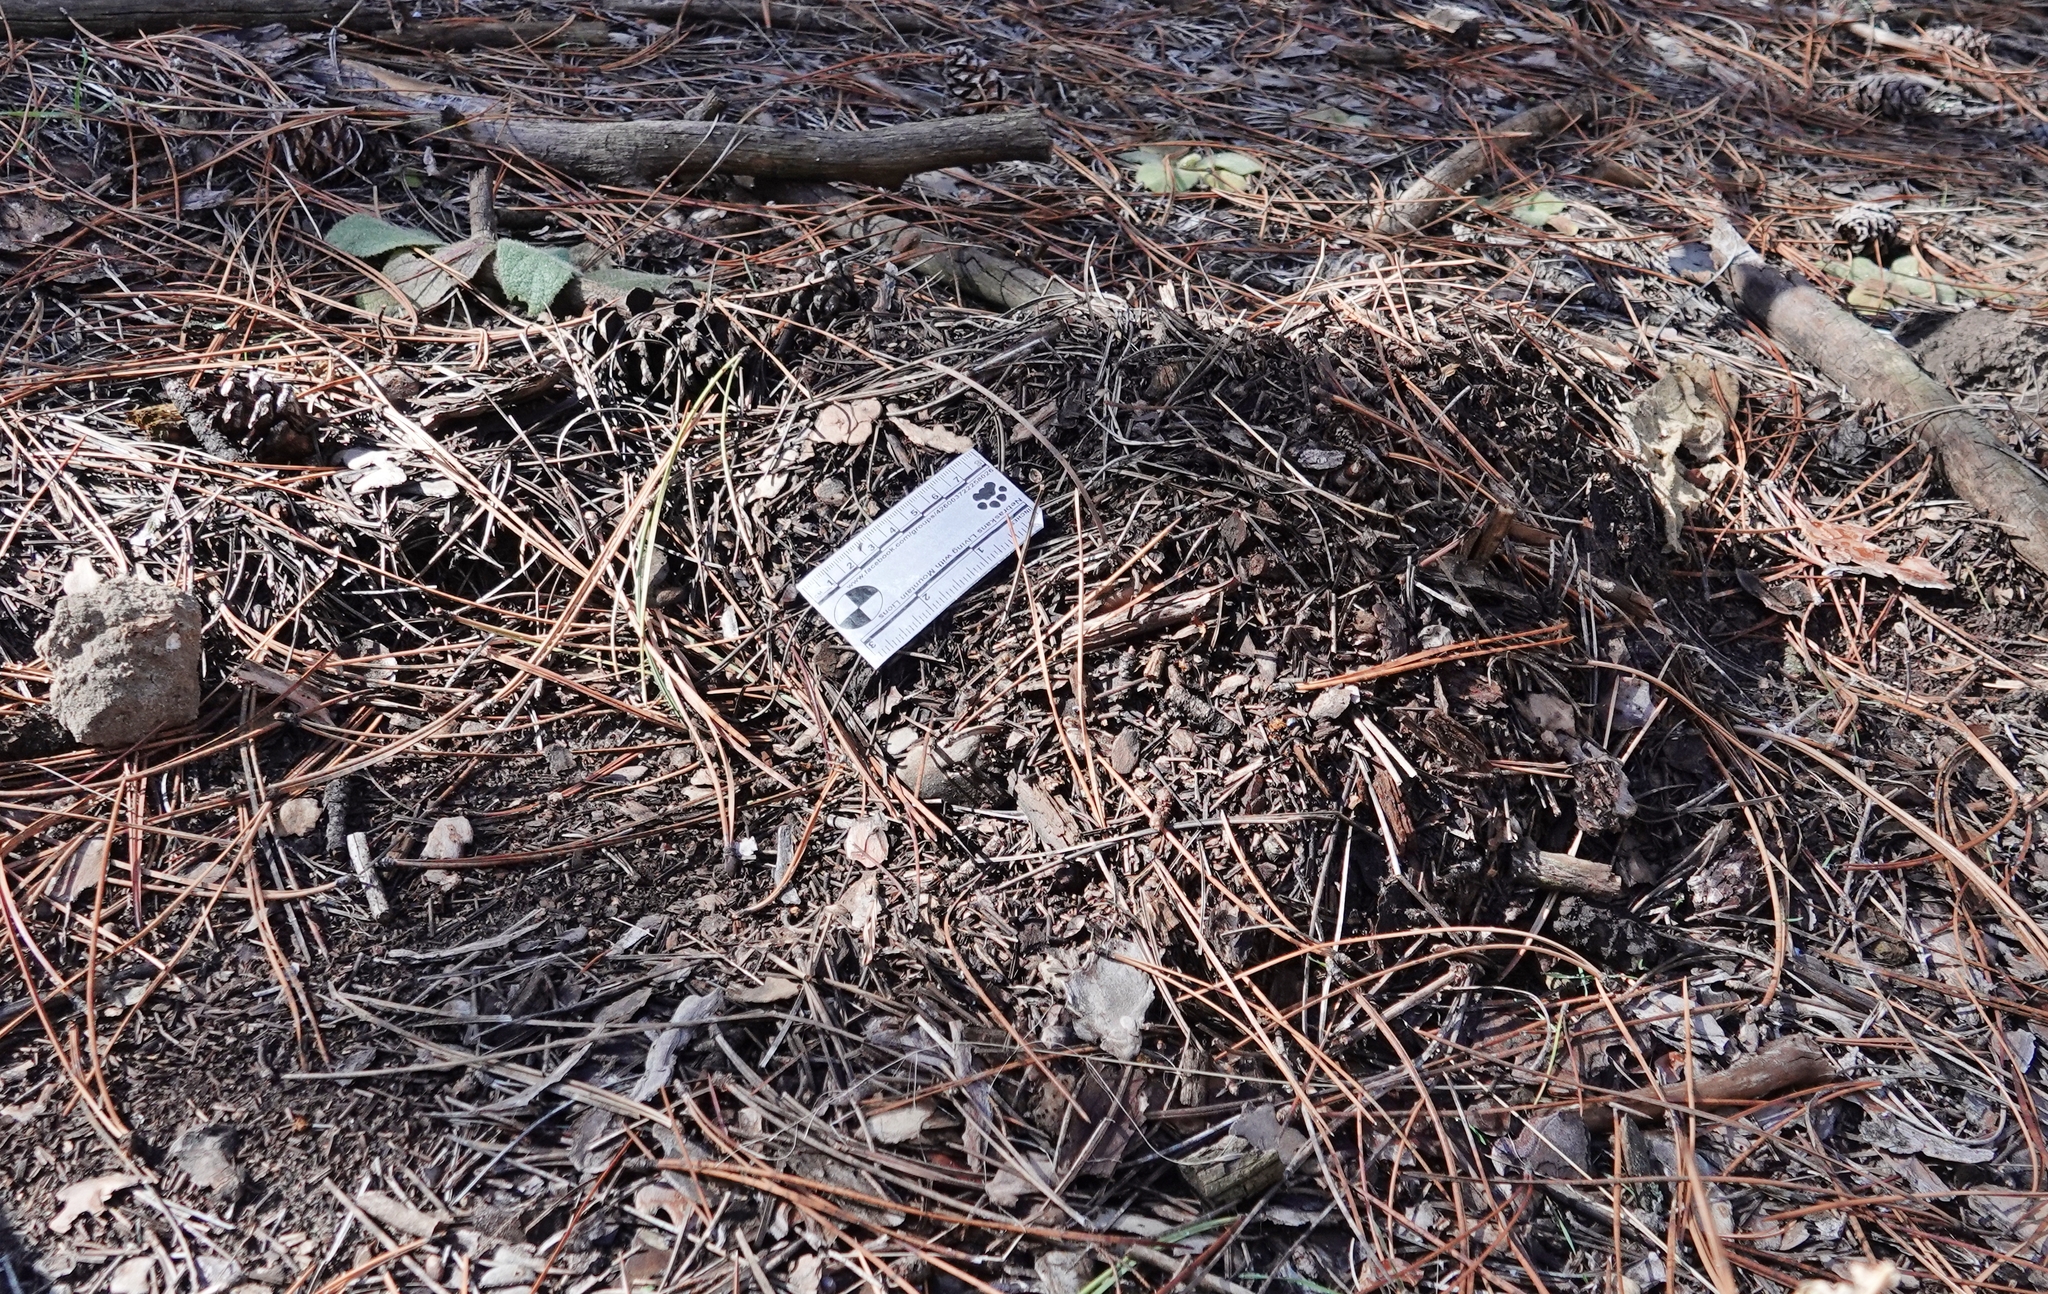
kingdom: Animalia
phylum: Chordata
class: Mammalia
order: Carnivora
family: Felidae
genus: Puma
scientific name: Puma concolor
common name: Puma
